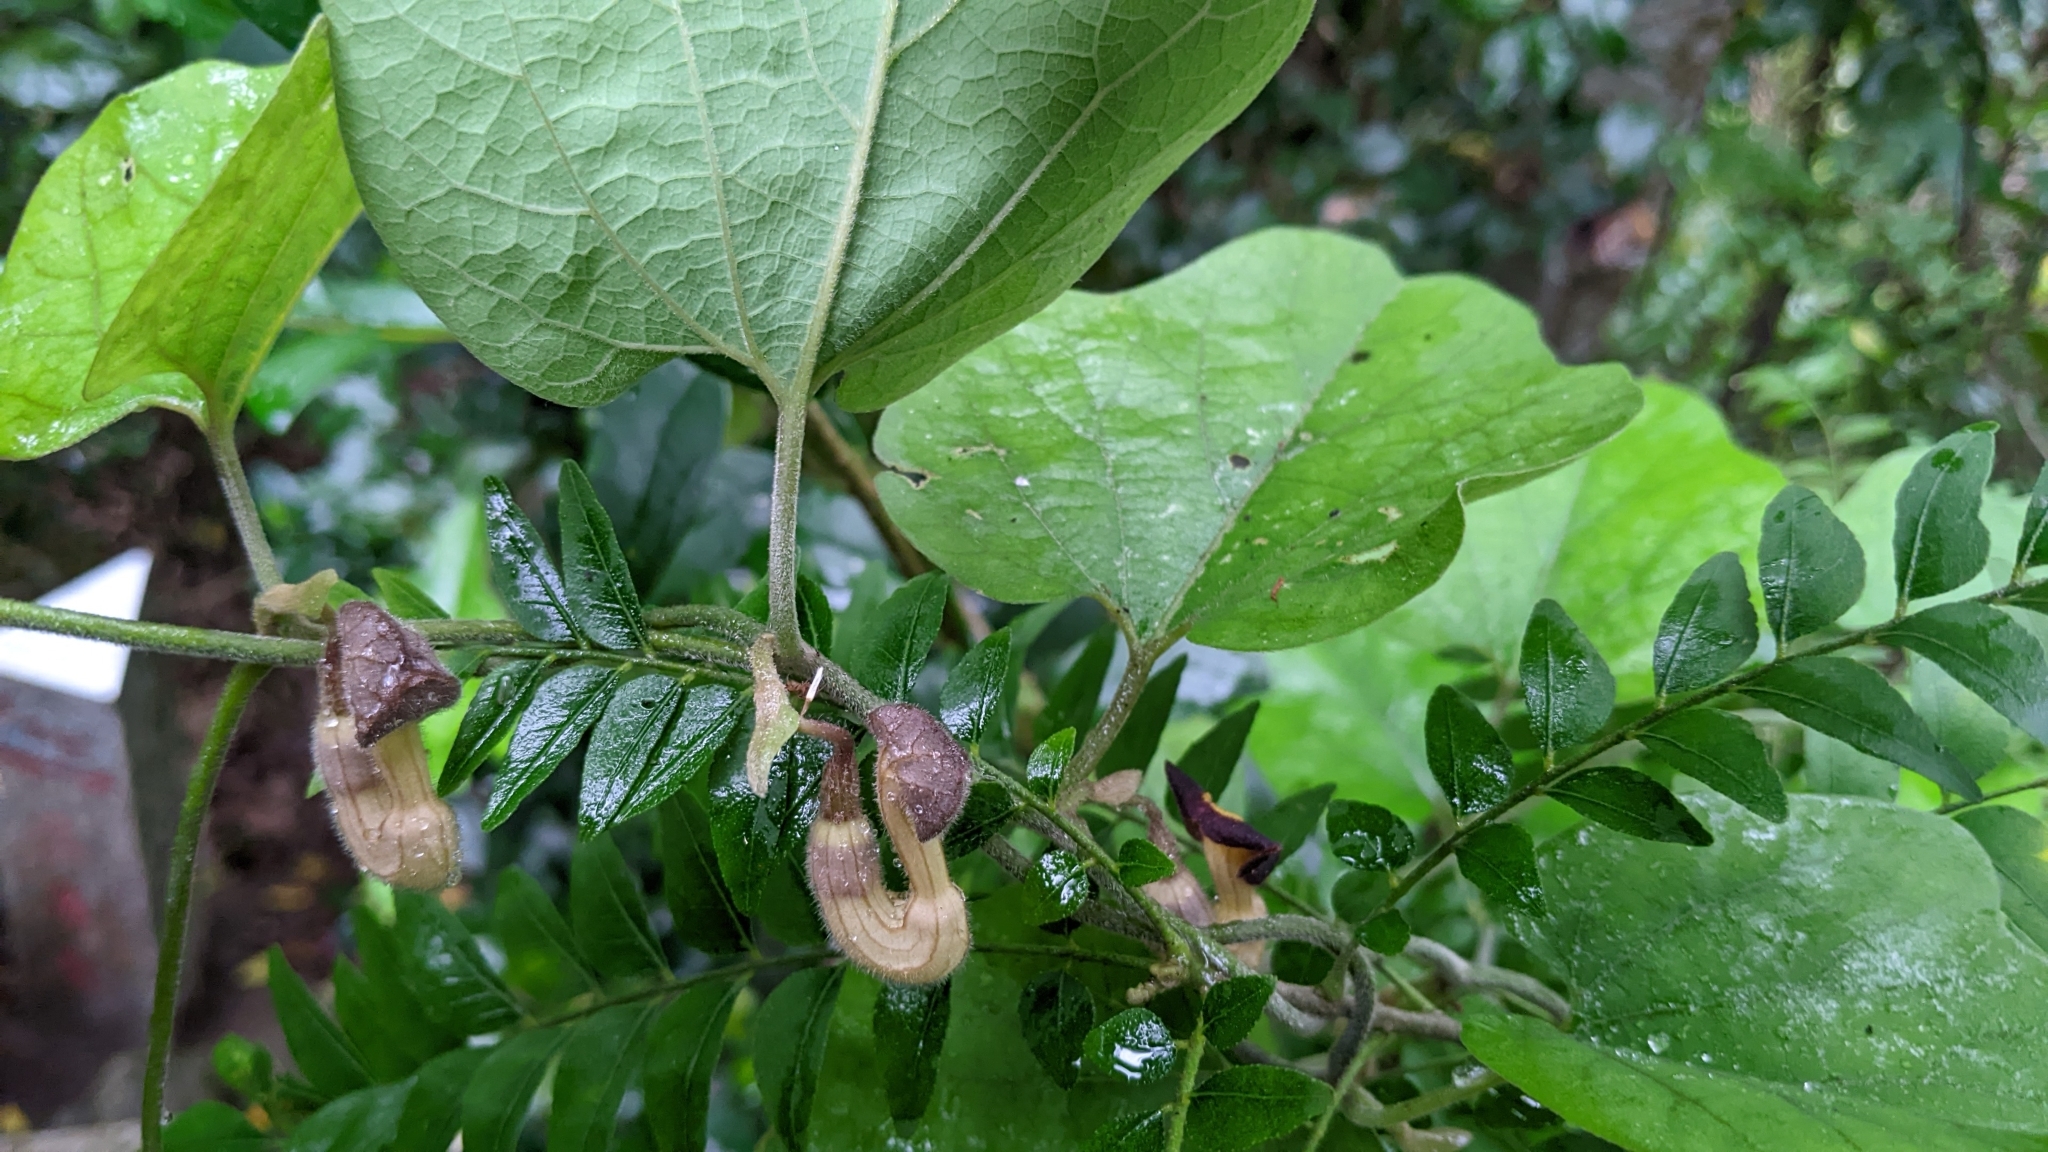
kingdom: Plantae
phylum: Tracheophyta
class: Magnoliopsida
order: Piperales
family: Aristolochiaceae
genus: Isotrema
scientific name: Isotrema shimadae
